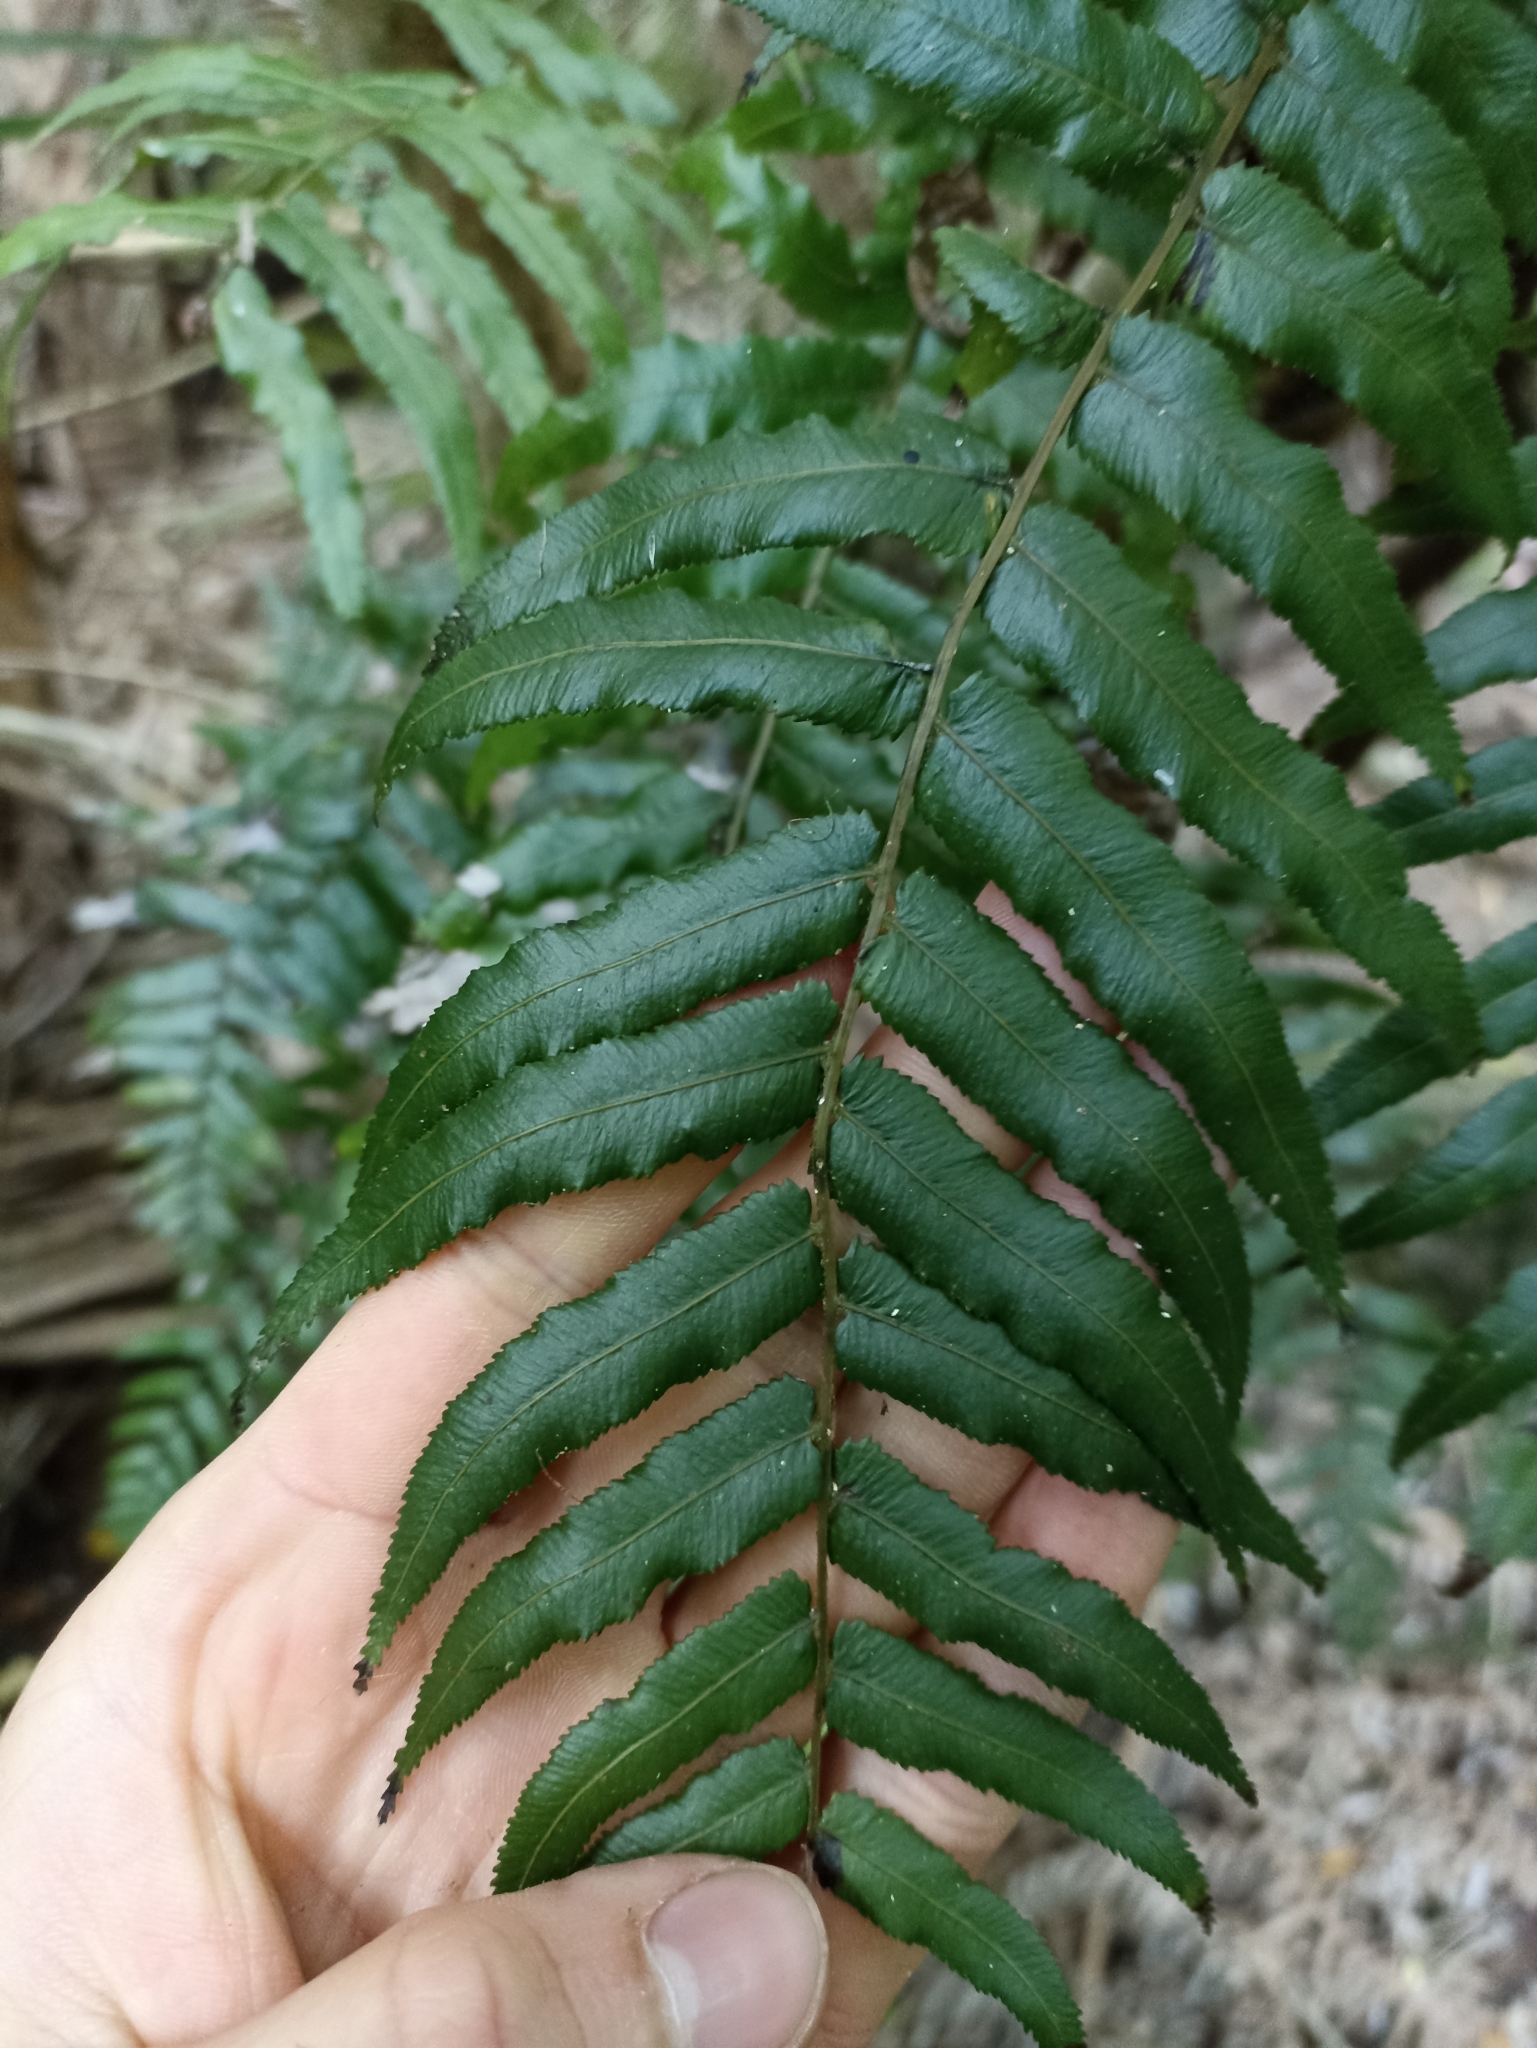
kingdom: Plantae
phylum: Tracheophyta
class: Polypodiopsida
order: Polypodiales
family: Blechnaceae
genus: Icarus
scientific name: Icarus filiformis
